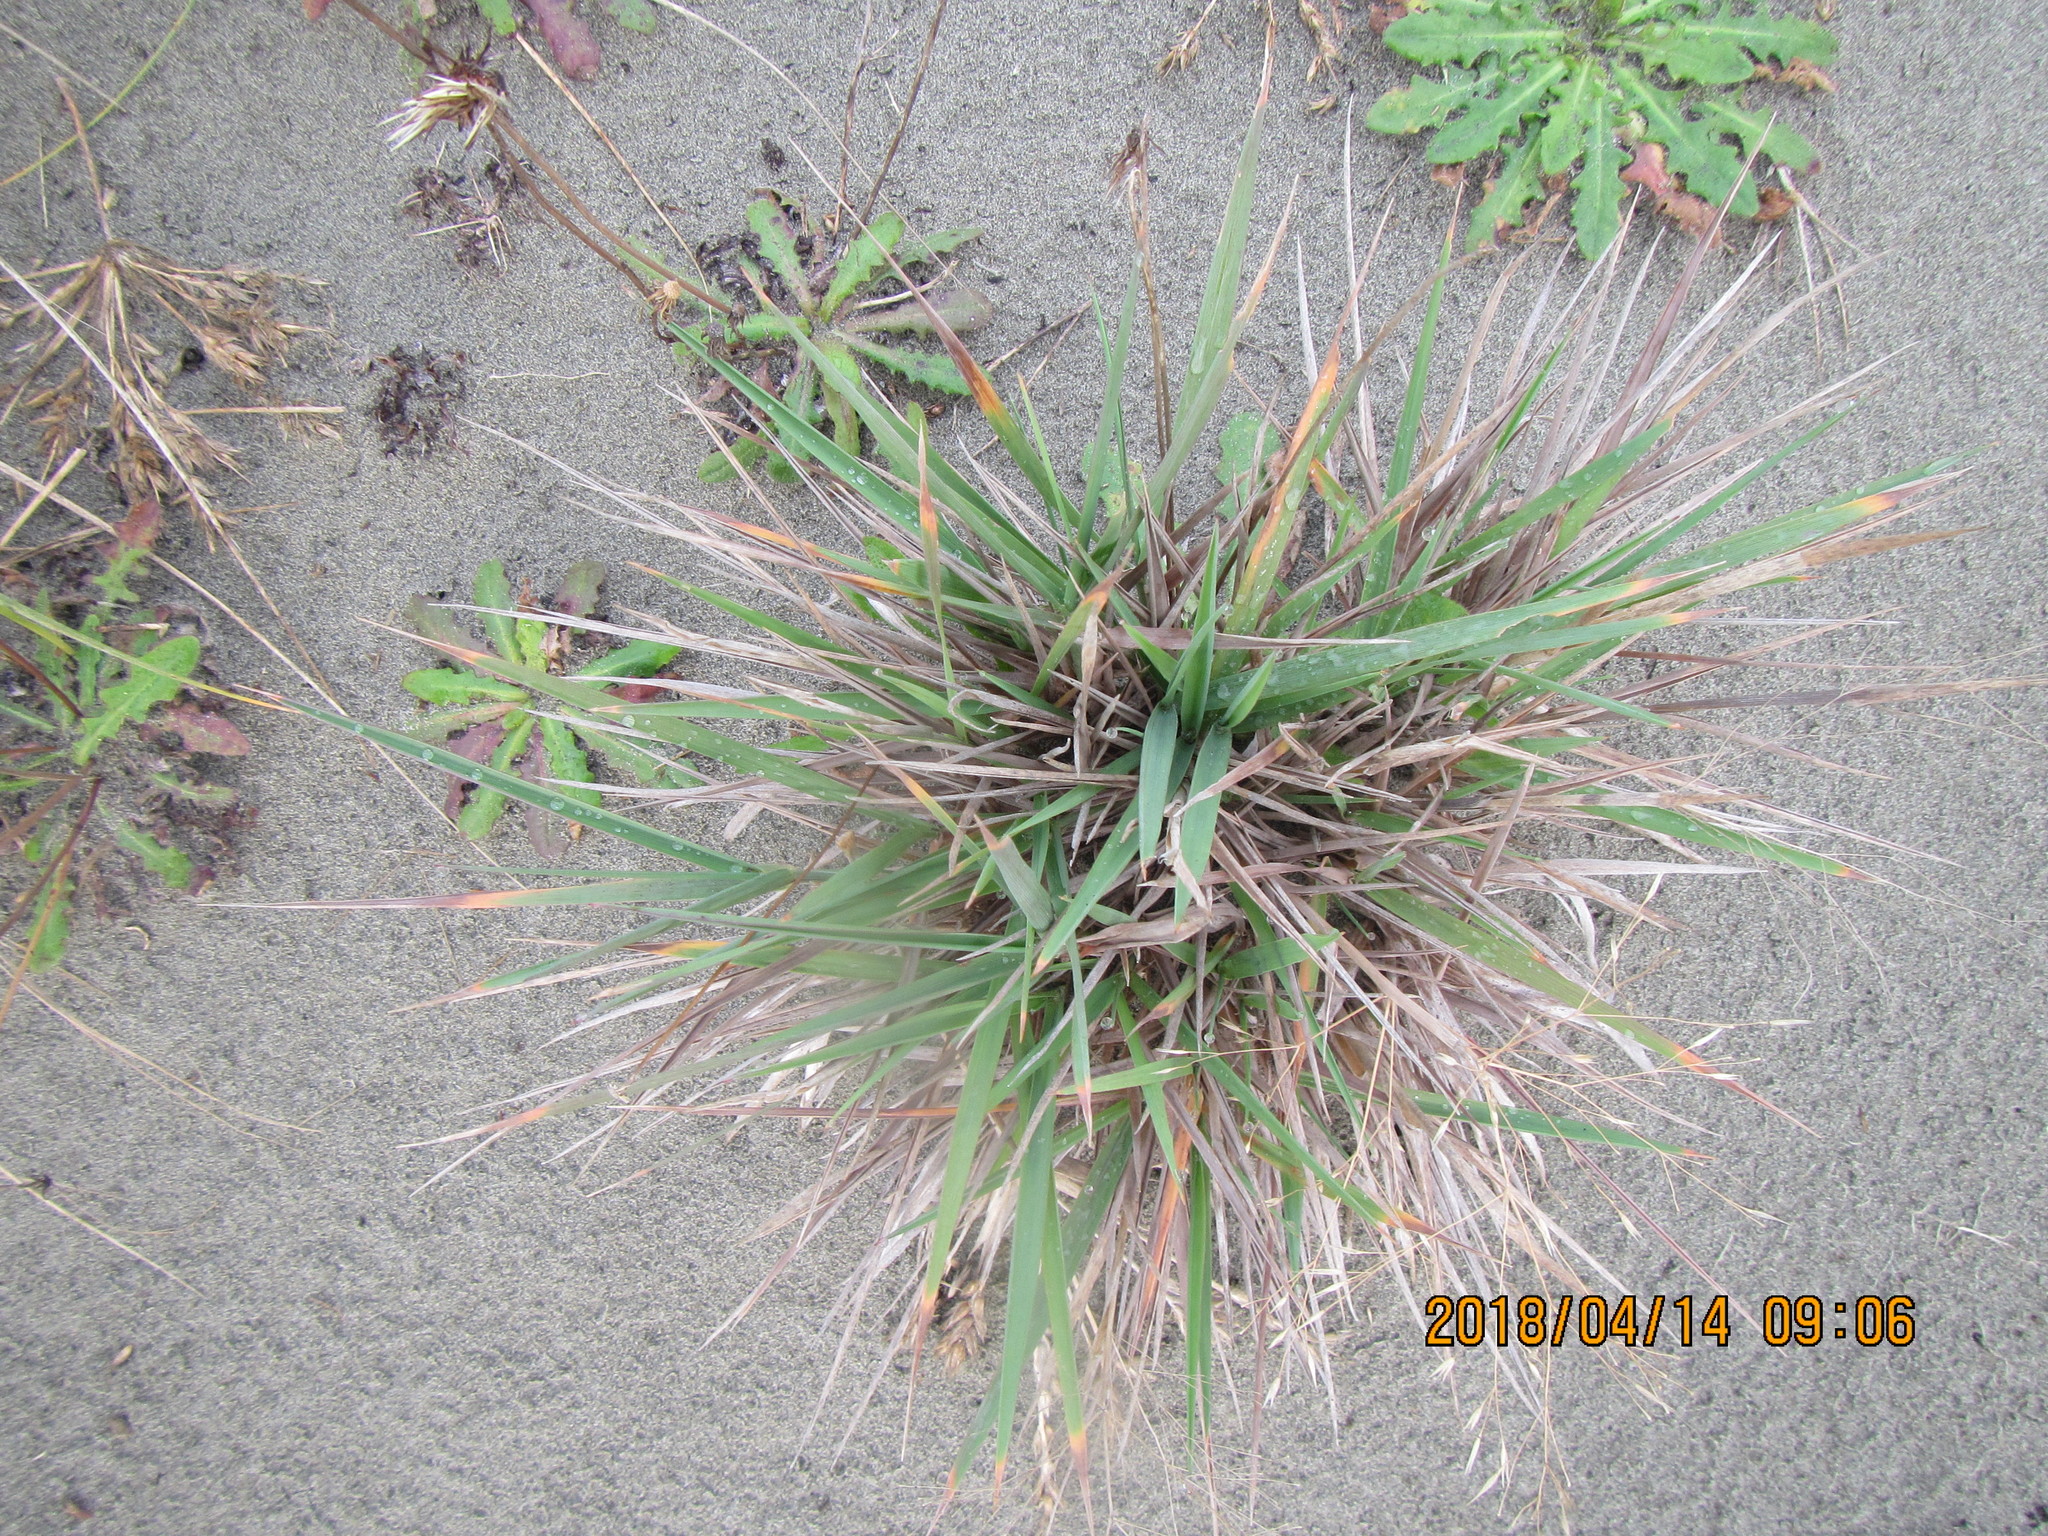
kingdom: Plantae
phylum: Tracheophyta
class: Liliopsida
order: Poales
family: Poaceae
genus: Lachnagrostis
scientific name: Lachnagrostis billardierei
